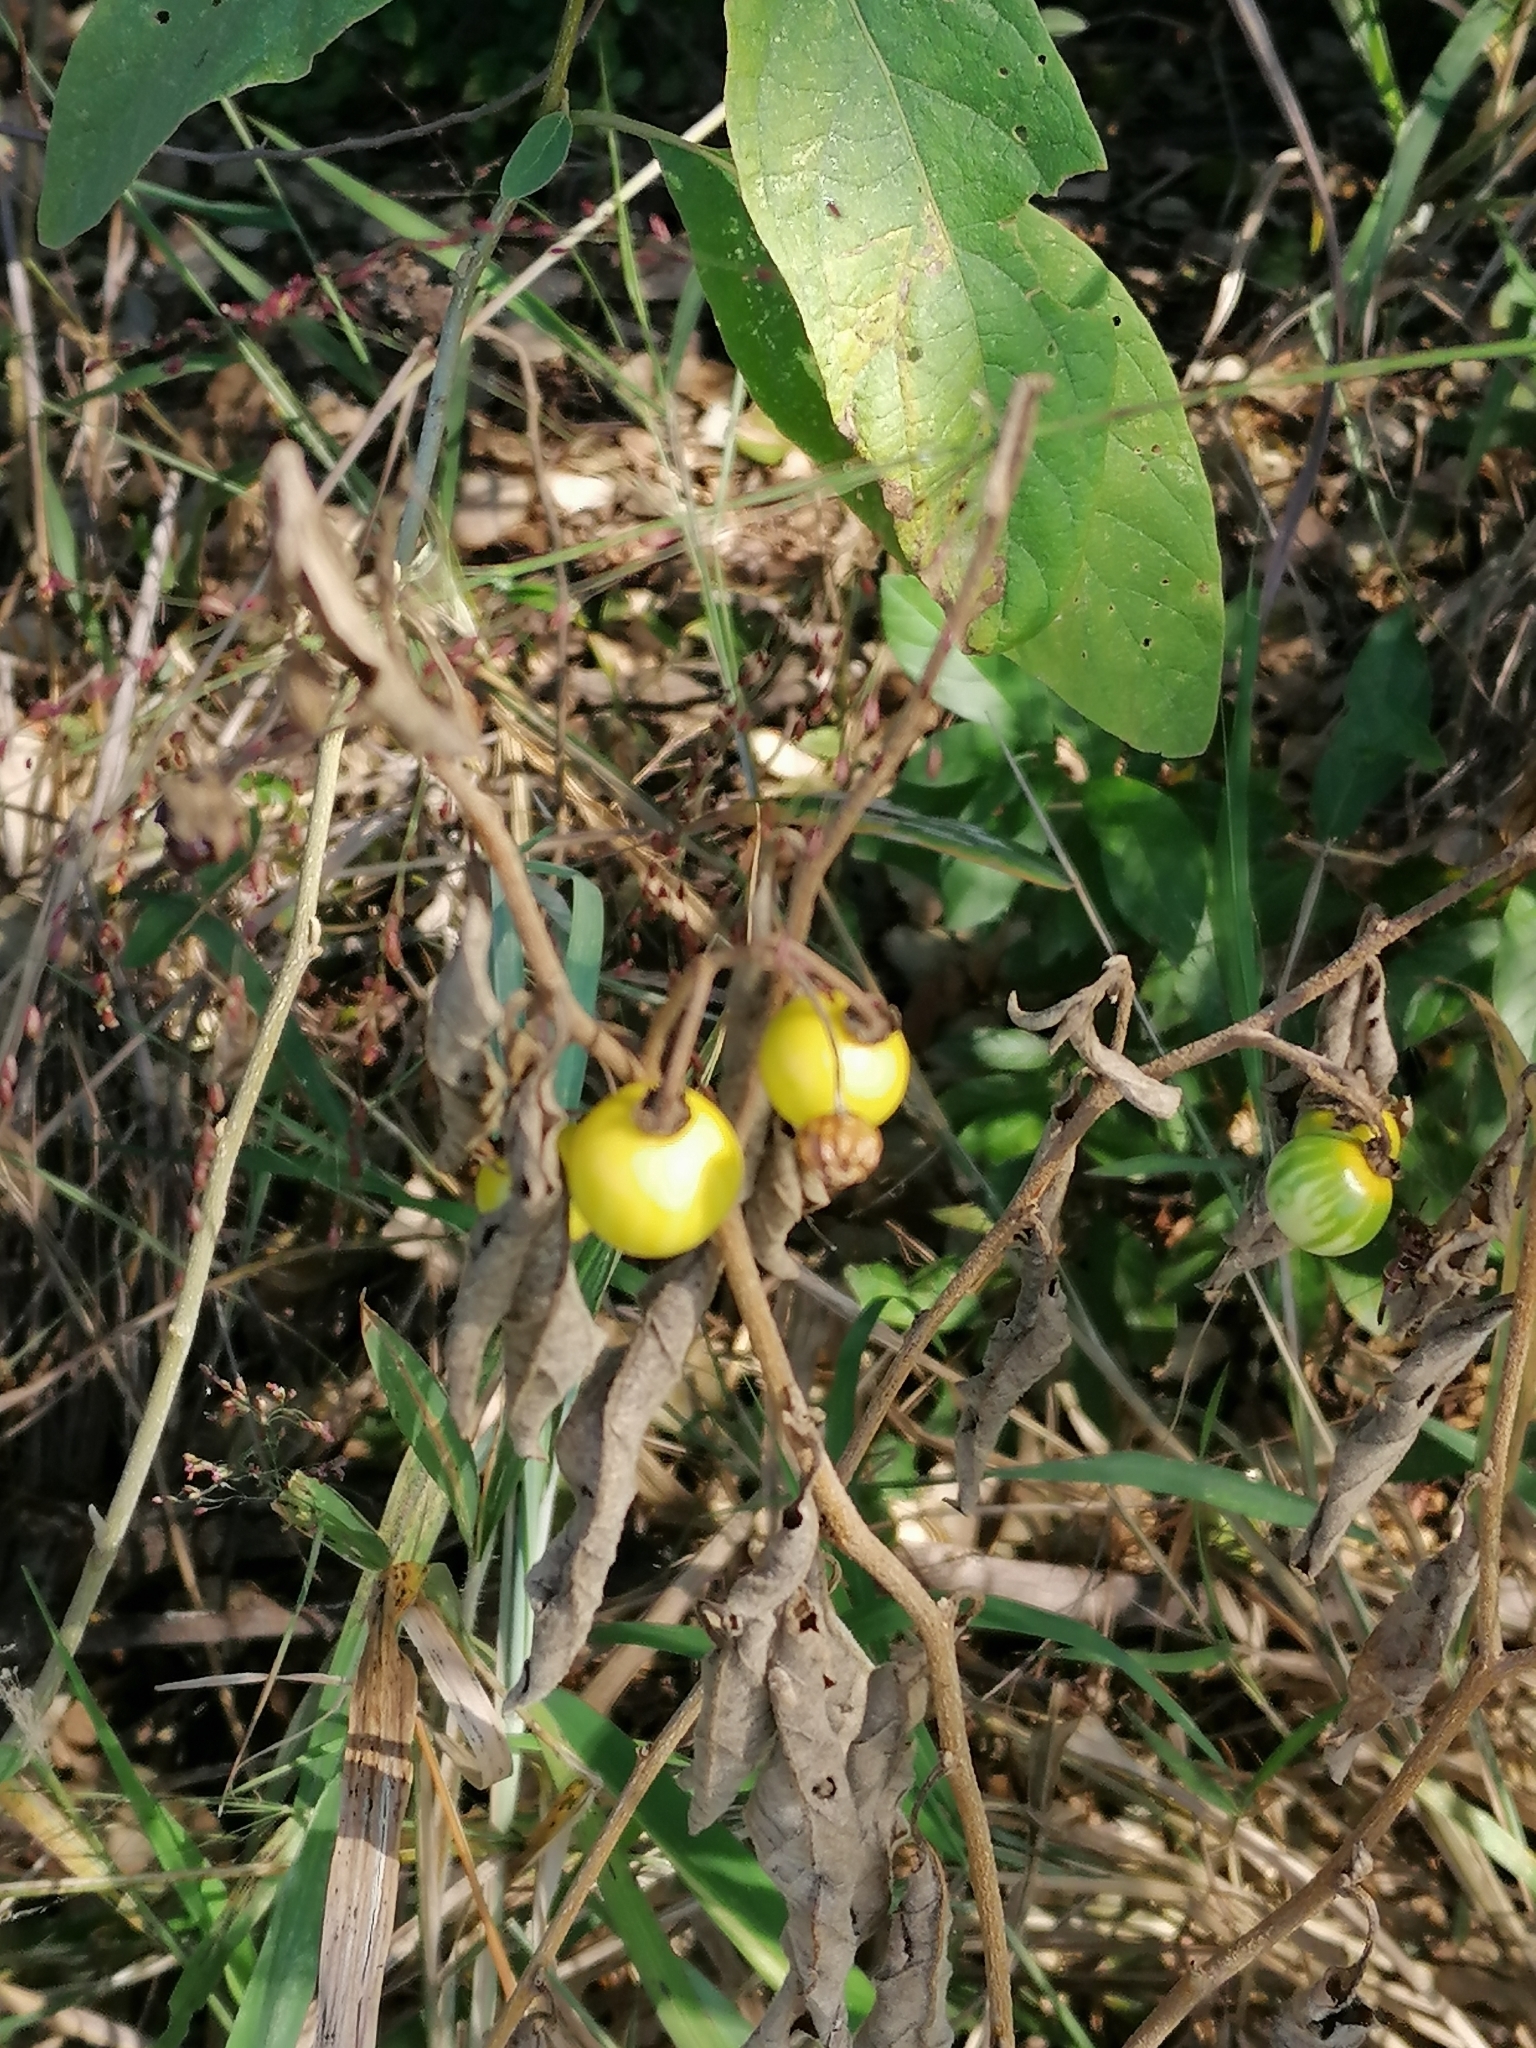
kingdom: Plantae
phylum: Tracheophyta
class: Magnoliopsida
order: Solanales
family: Solanaceae
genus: Solanum
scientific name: Solanum campylacanthum
